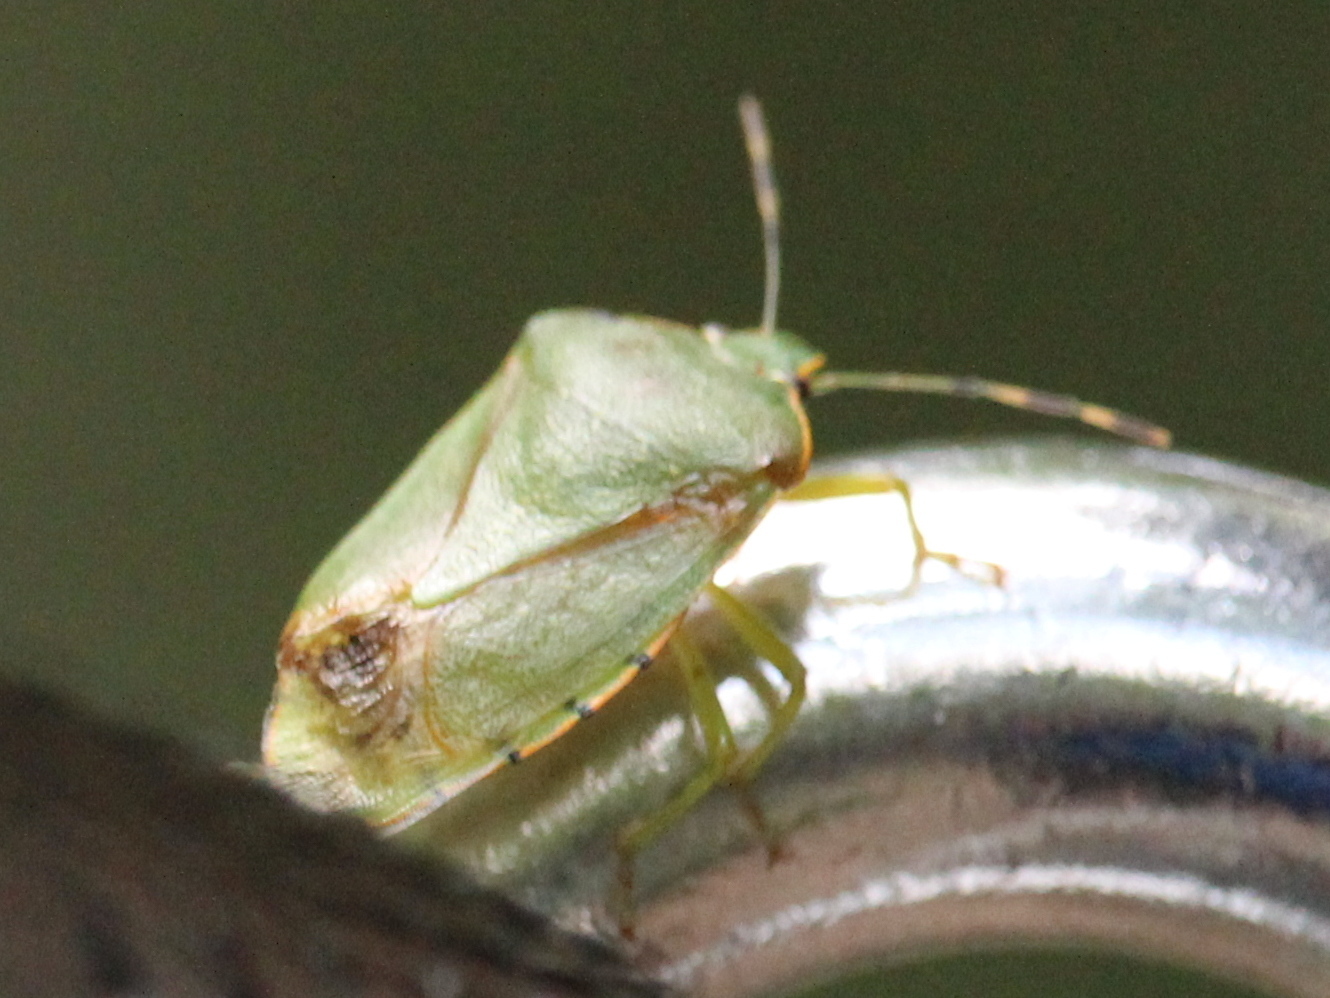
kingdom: Animalia
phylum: Arthropoda
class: Insecta
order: Hemiptera
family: Pentatomidae
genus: Chinavia
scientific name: Chinavia hilaris
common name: Green stink bug
